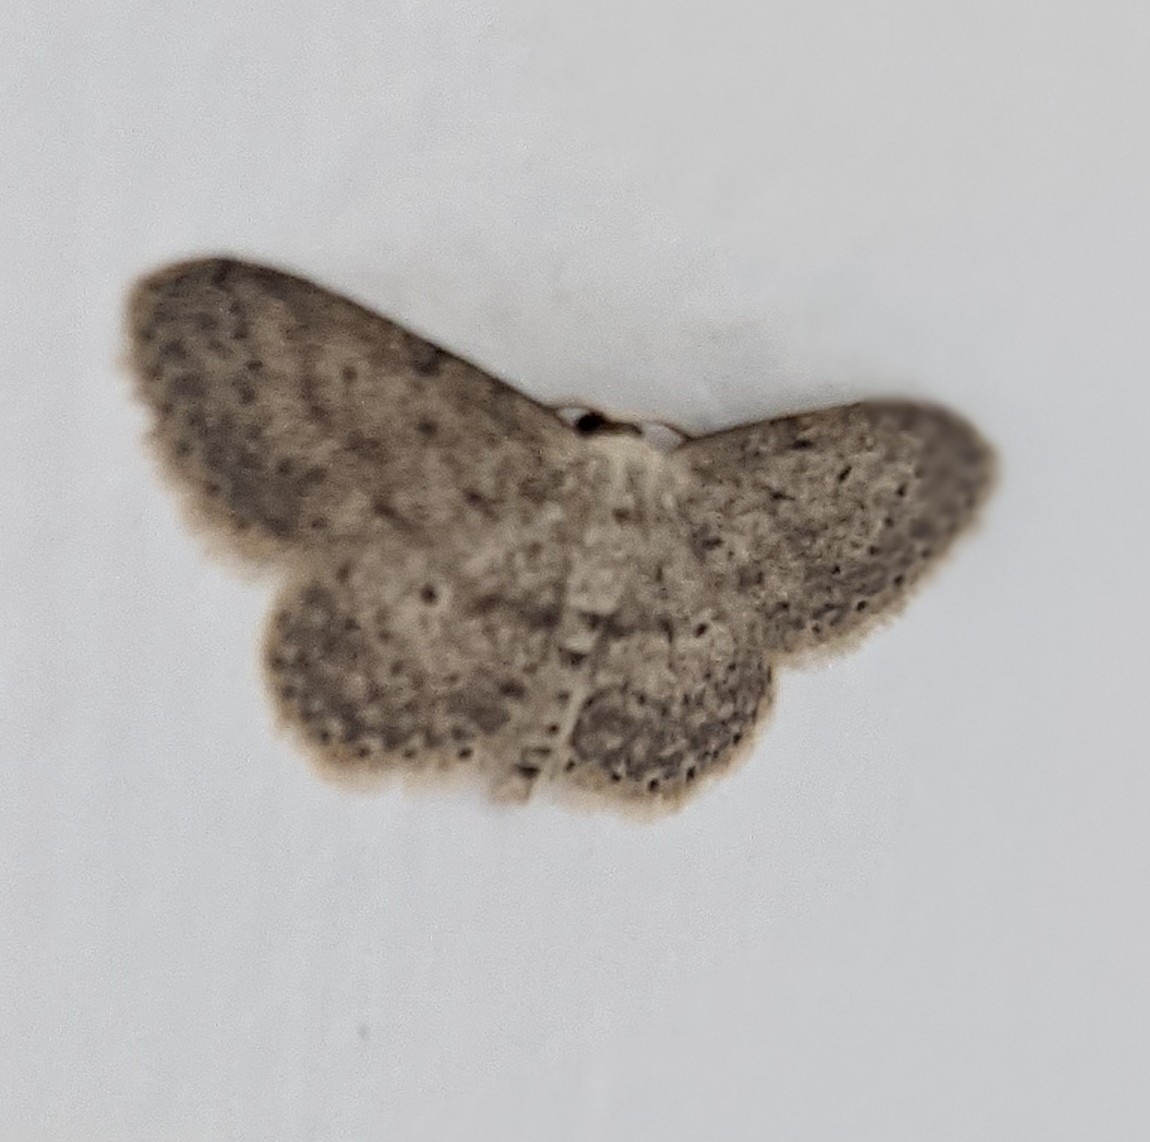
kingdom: Animalia
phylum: Arthropoda
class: Insecta
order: Lepidoptera
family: Geometridae
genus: Idaea
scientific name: Idaea seriata
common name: Small dusty wave
